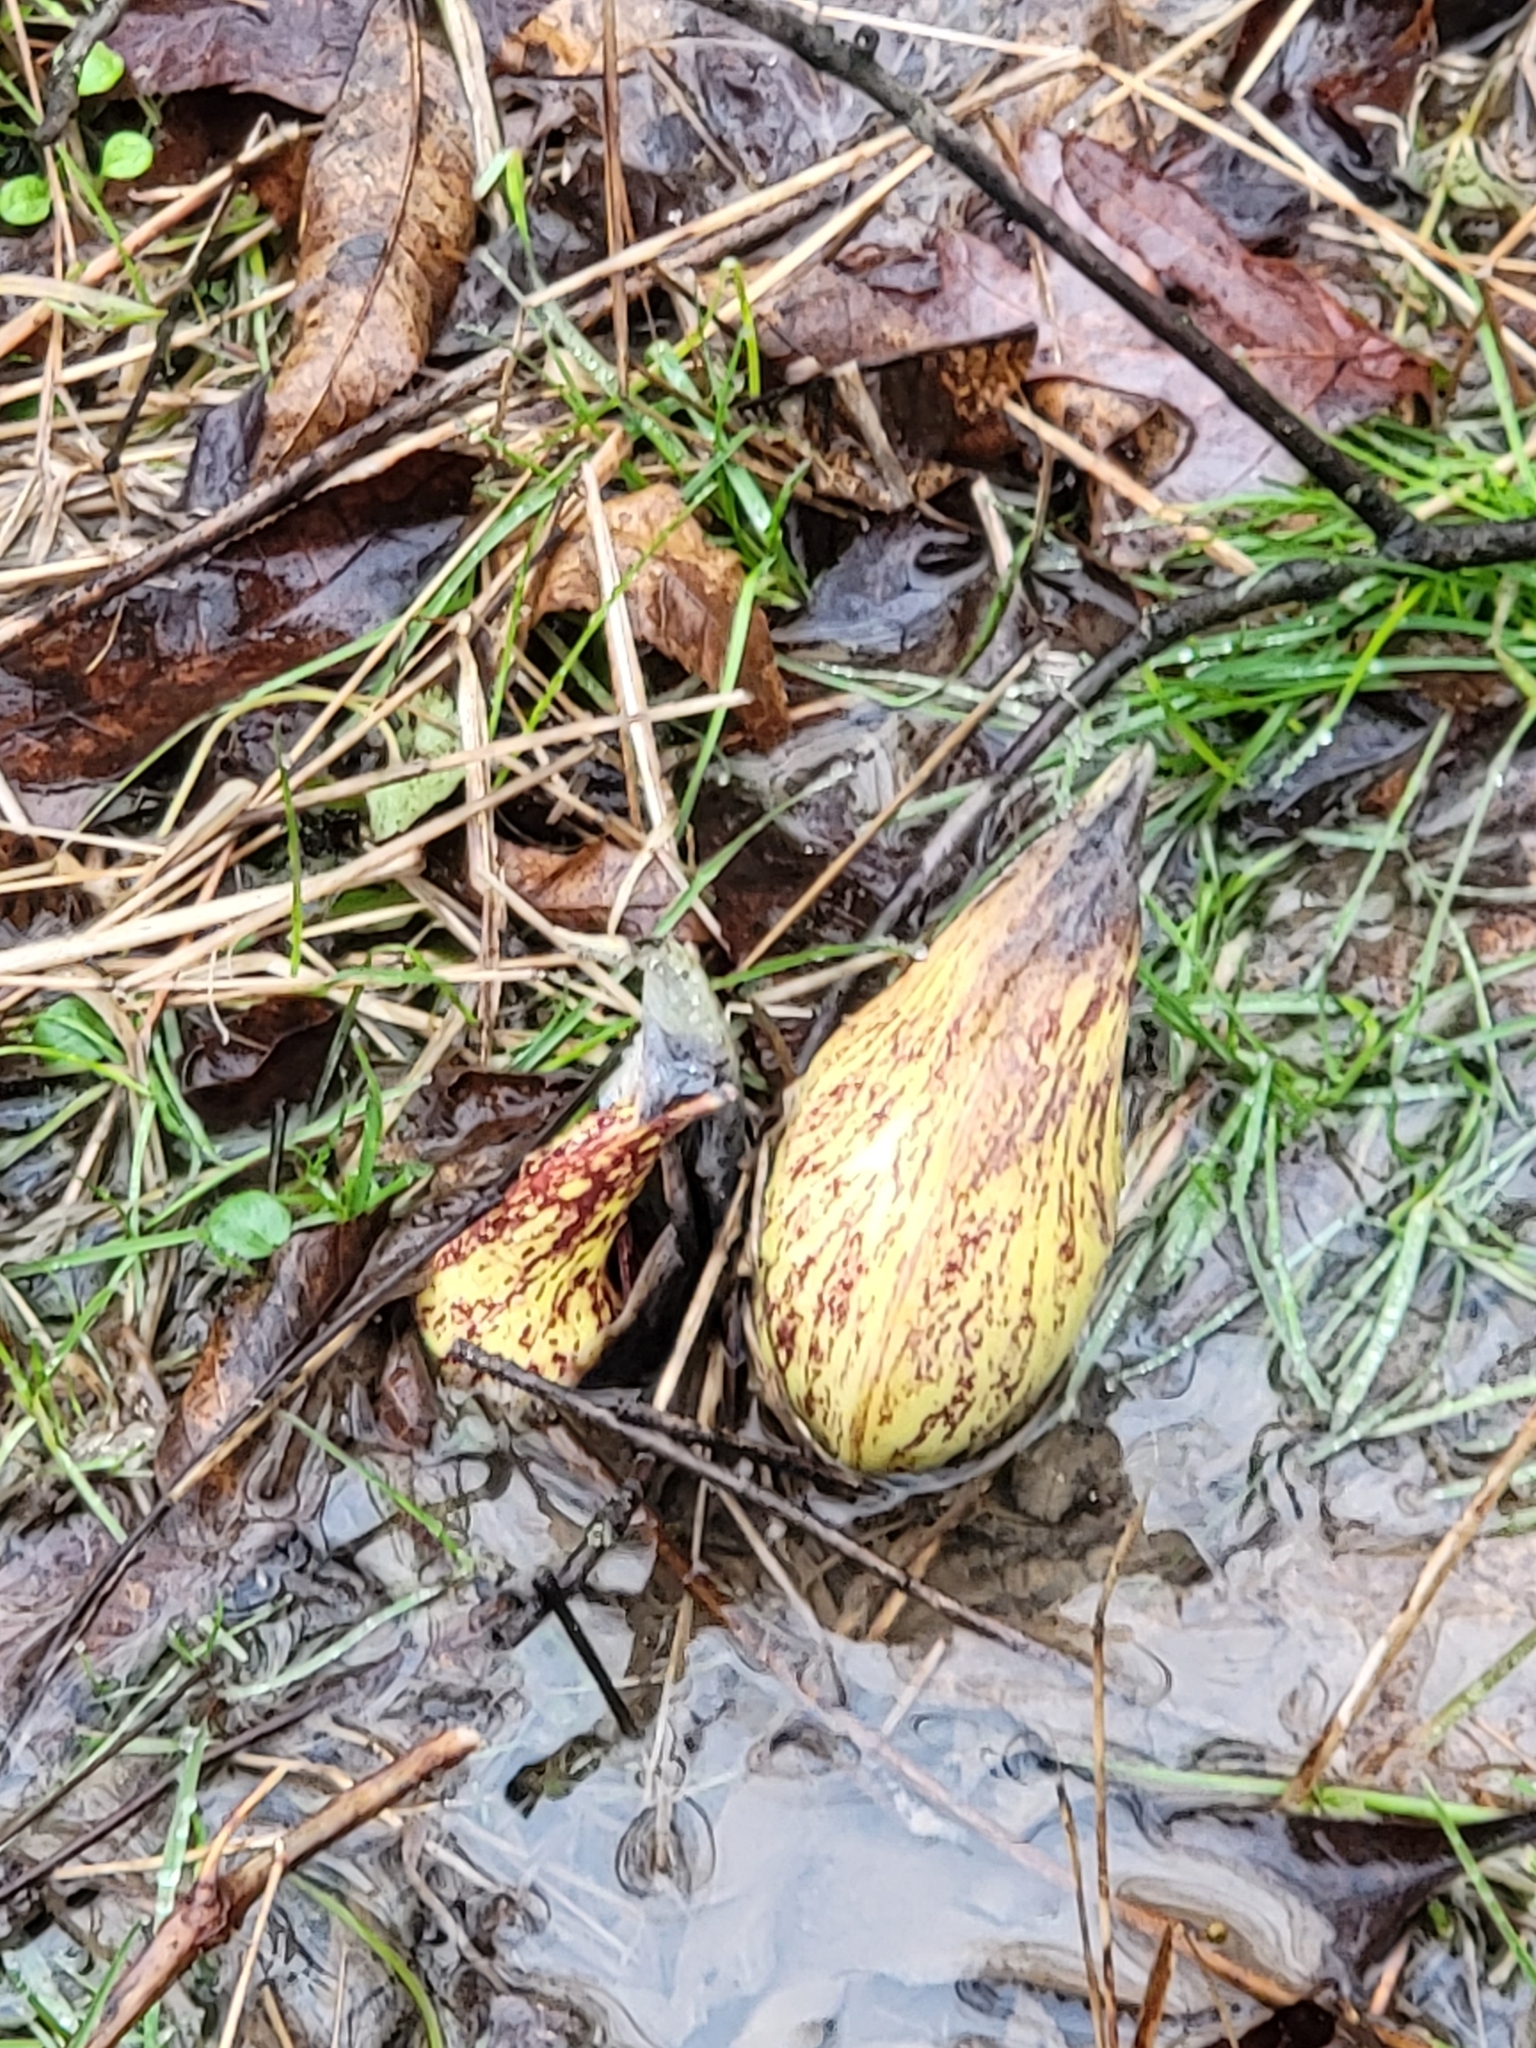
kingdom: Plantae
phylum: Tracheophyta
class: Liliopsida
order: Alismatales
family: Araceae
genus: Symplocarpus
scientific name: Symplocarpus foetidus
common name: Eastern skunk cabbage
